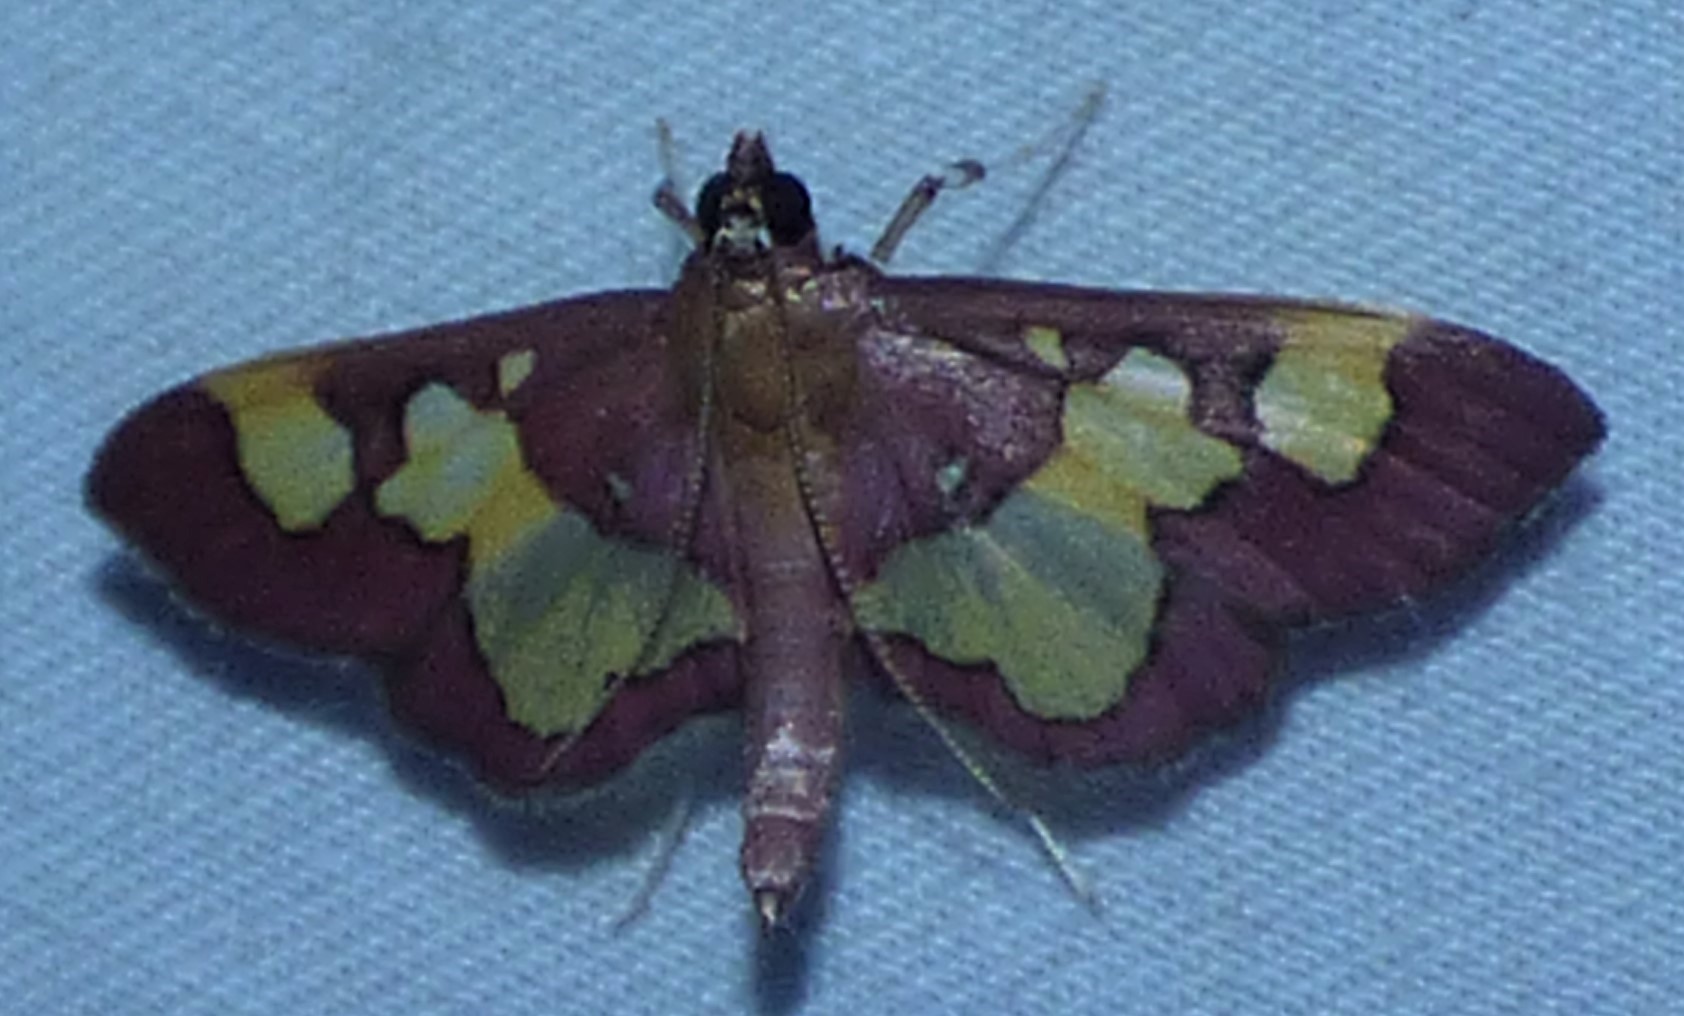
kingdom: Animalia
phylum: Arthropoda
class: Insecta
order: Lepidoptera
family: Crambidae
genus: Colomychus
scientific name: Colomychus talis
